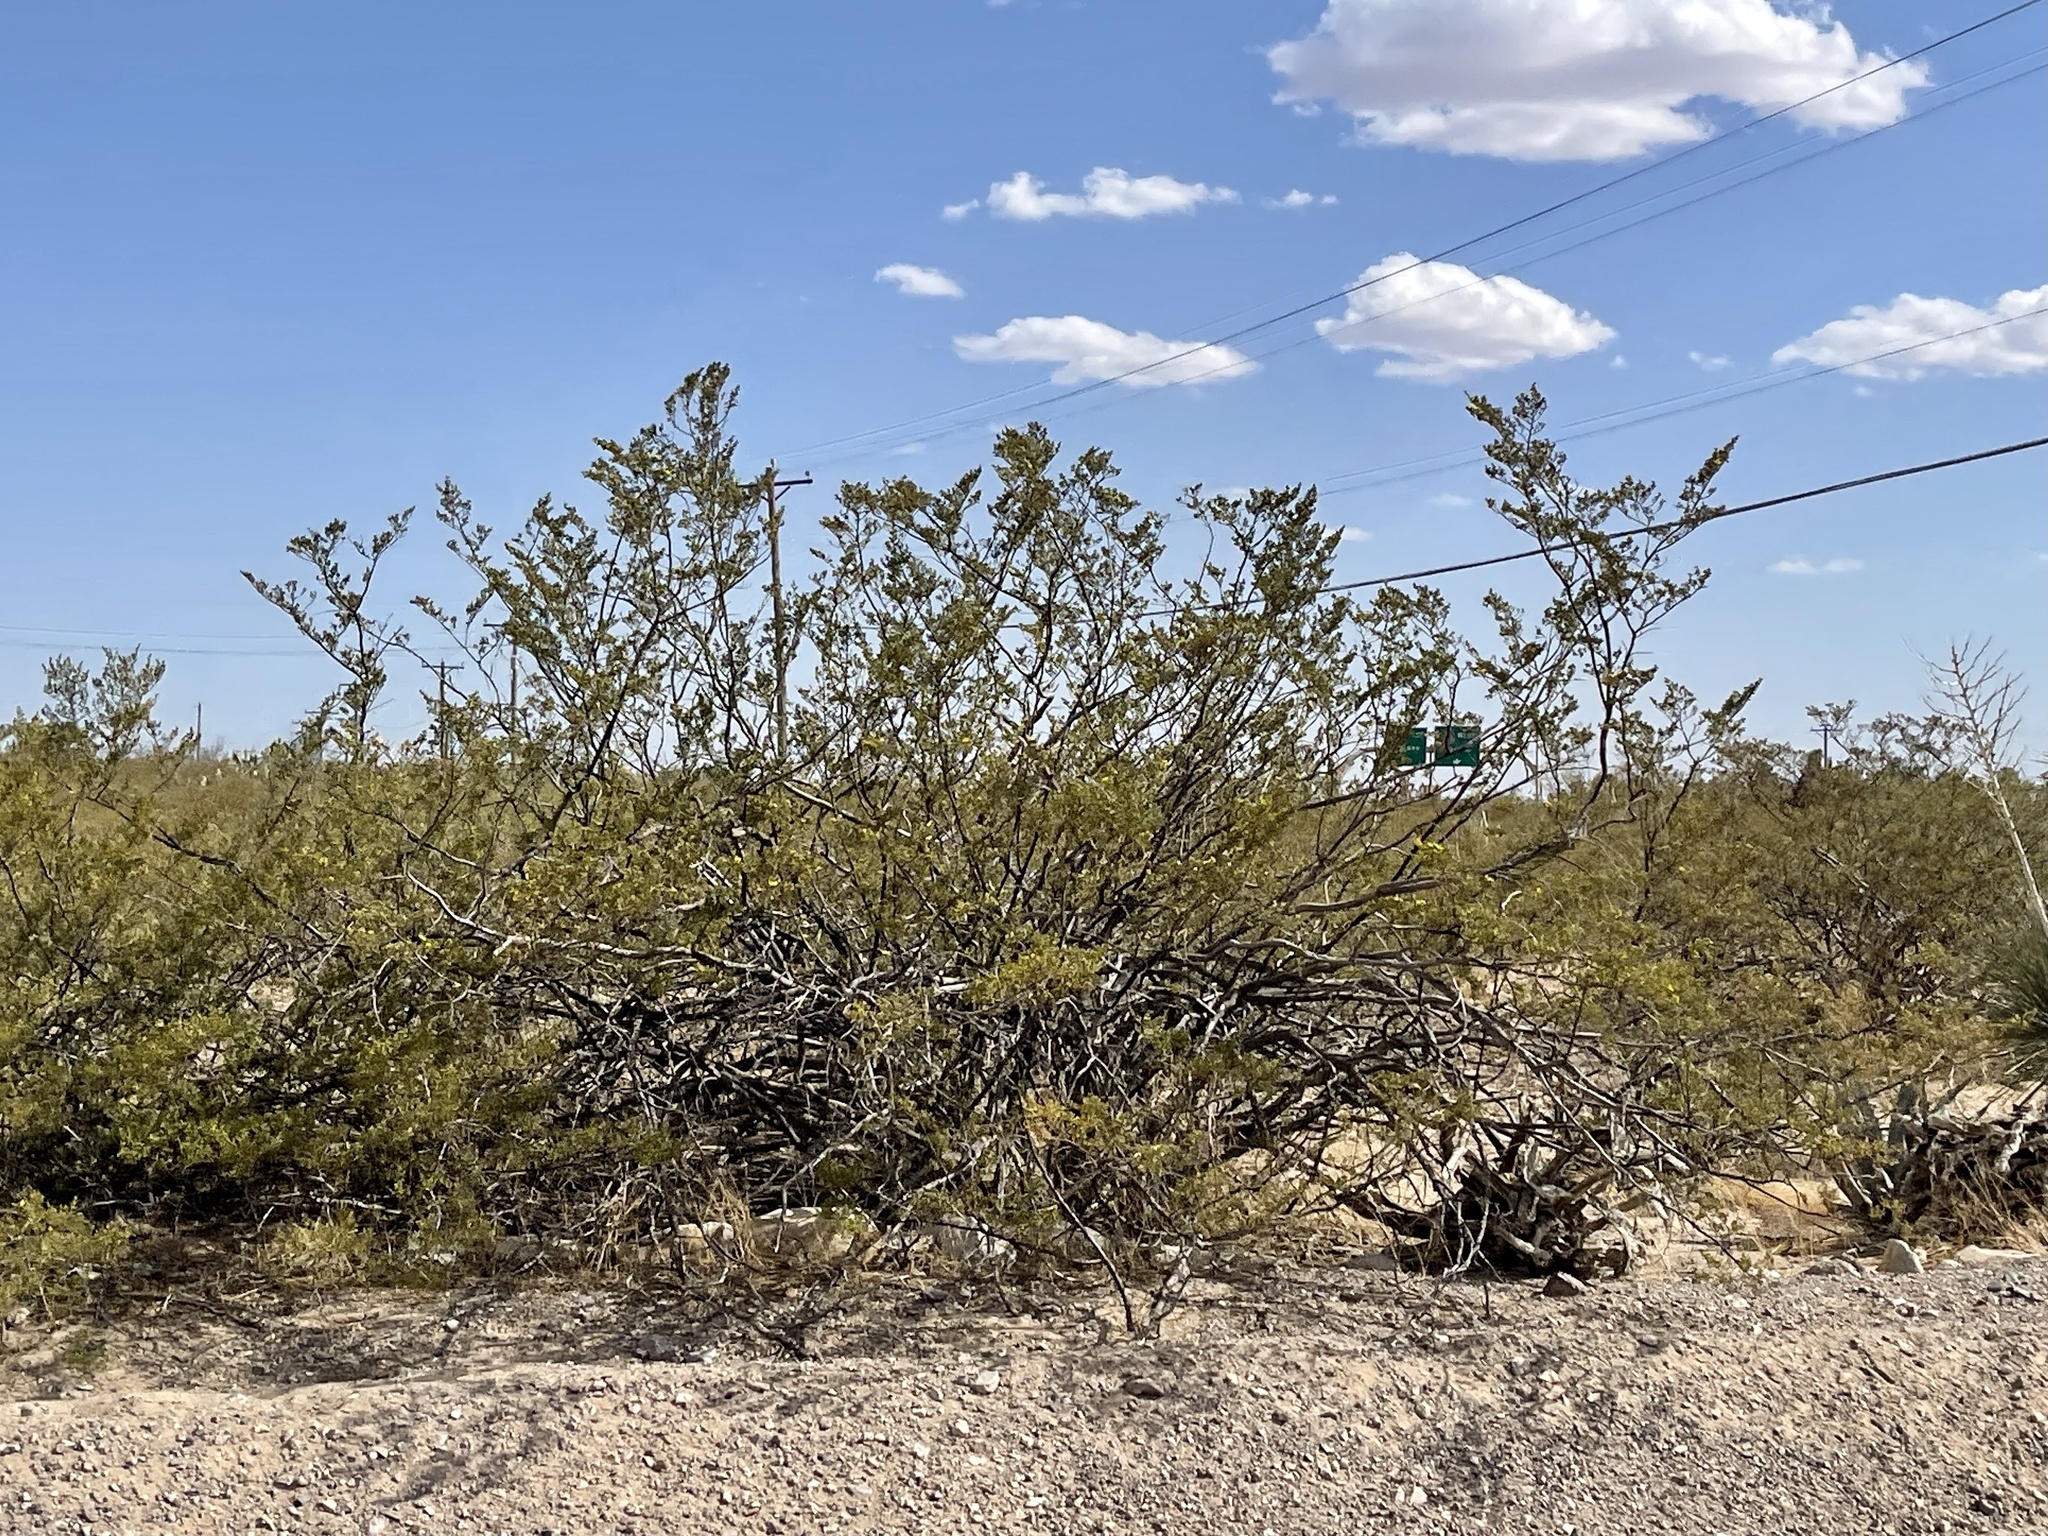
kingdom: Plantae
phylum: Tracheophyta
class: Magnoliopsida
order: Zygophyllales
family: Zygophyllaceae
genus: Larrea
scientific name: Larrea tridentata
